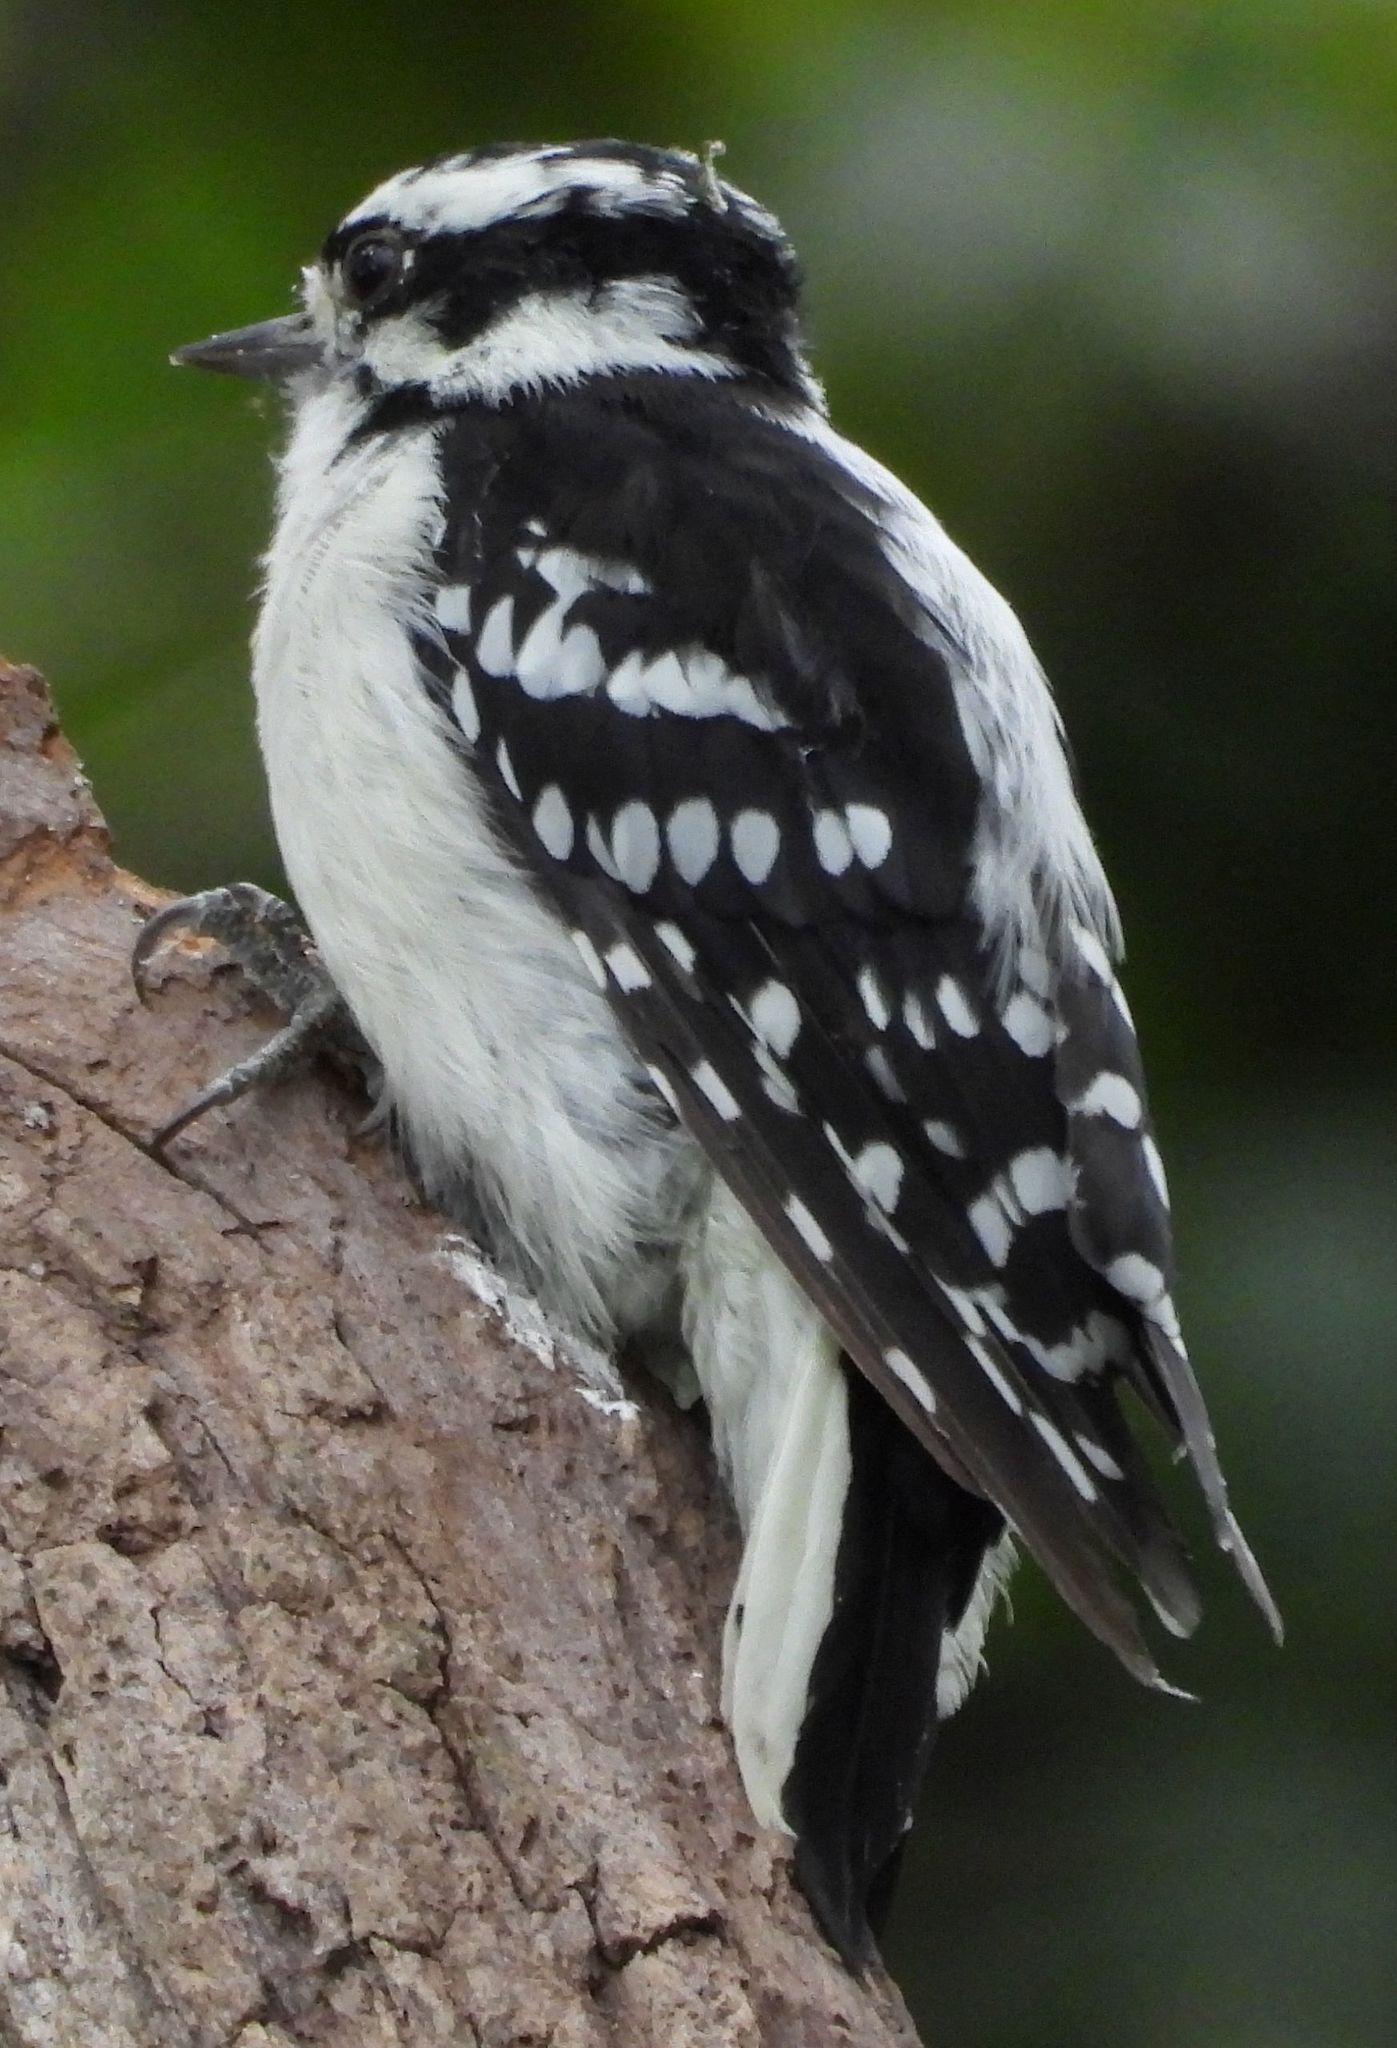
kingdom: Animalia
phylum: Chordata
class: Aves
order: Piciformes
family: Picidae
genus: Dryobates
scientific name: Dryobates pubescens
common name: Downy woodpecker
